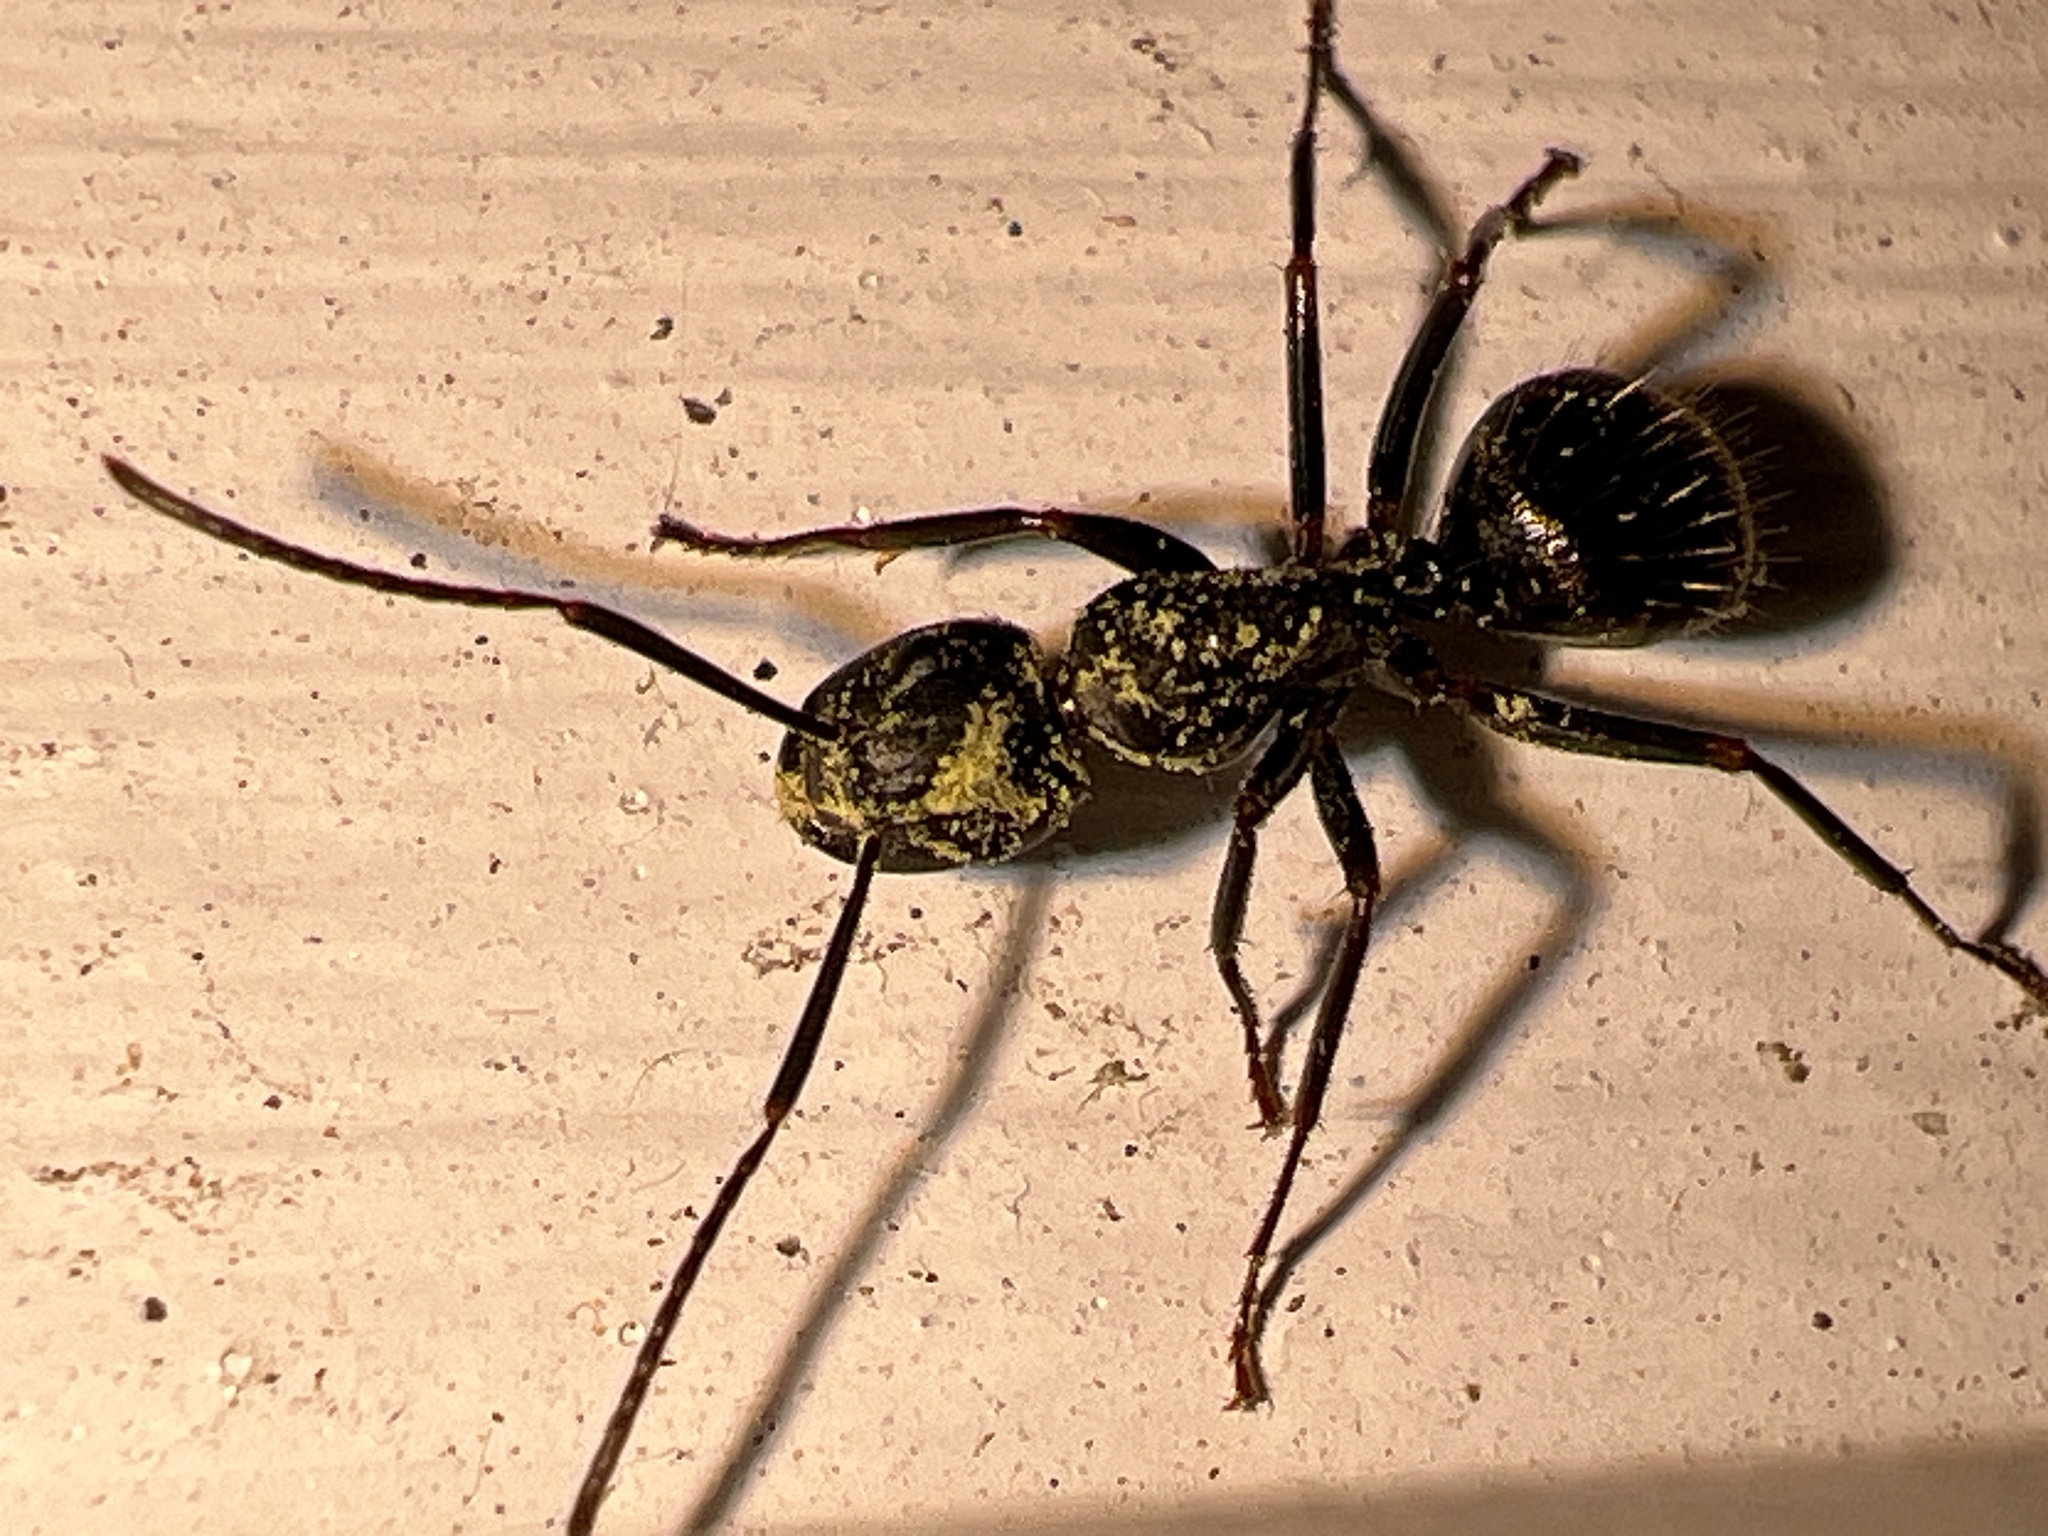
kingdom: Animalia
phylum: Arthropoda
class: Insecta
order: Hymenoptera
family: Formicidae
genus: Camponotus
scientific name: Camponotus pennsylvanicus
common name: Black carpenter ant
